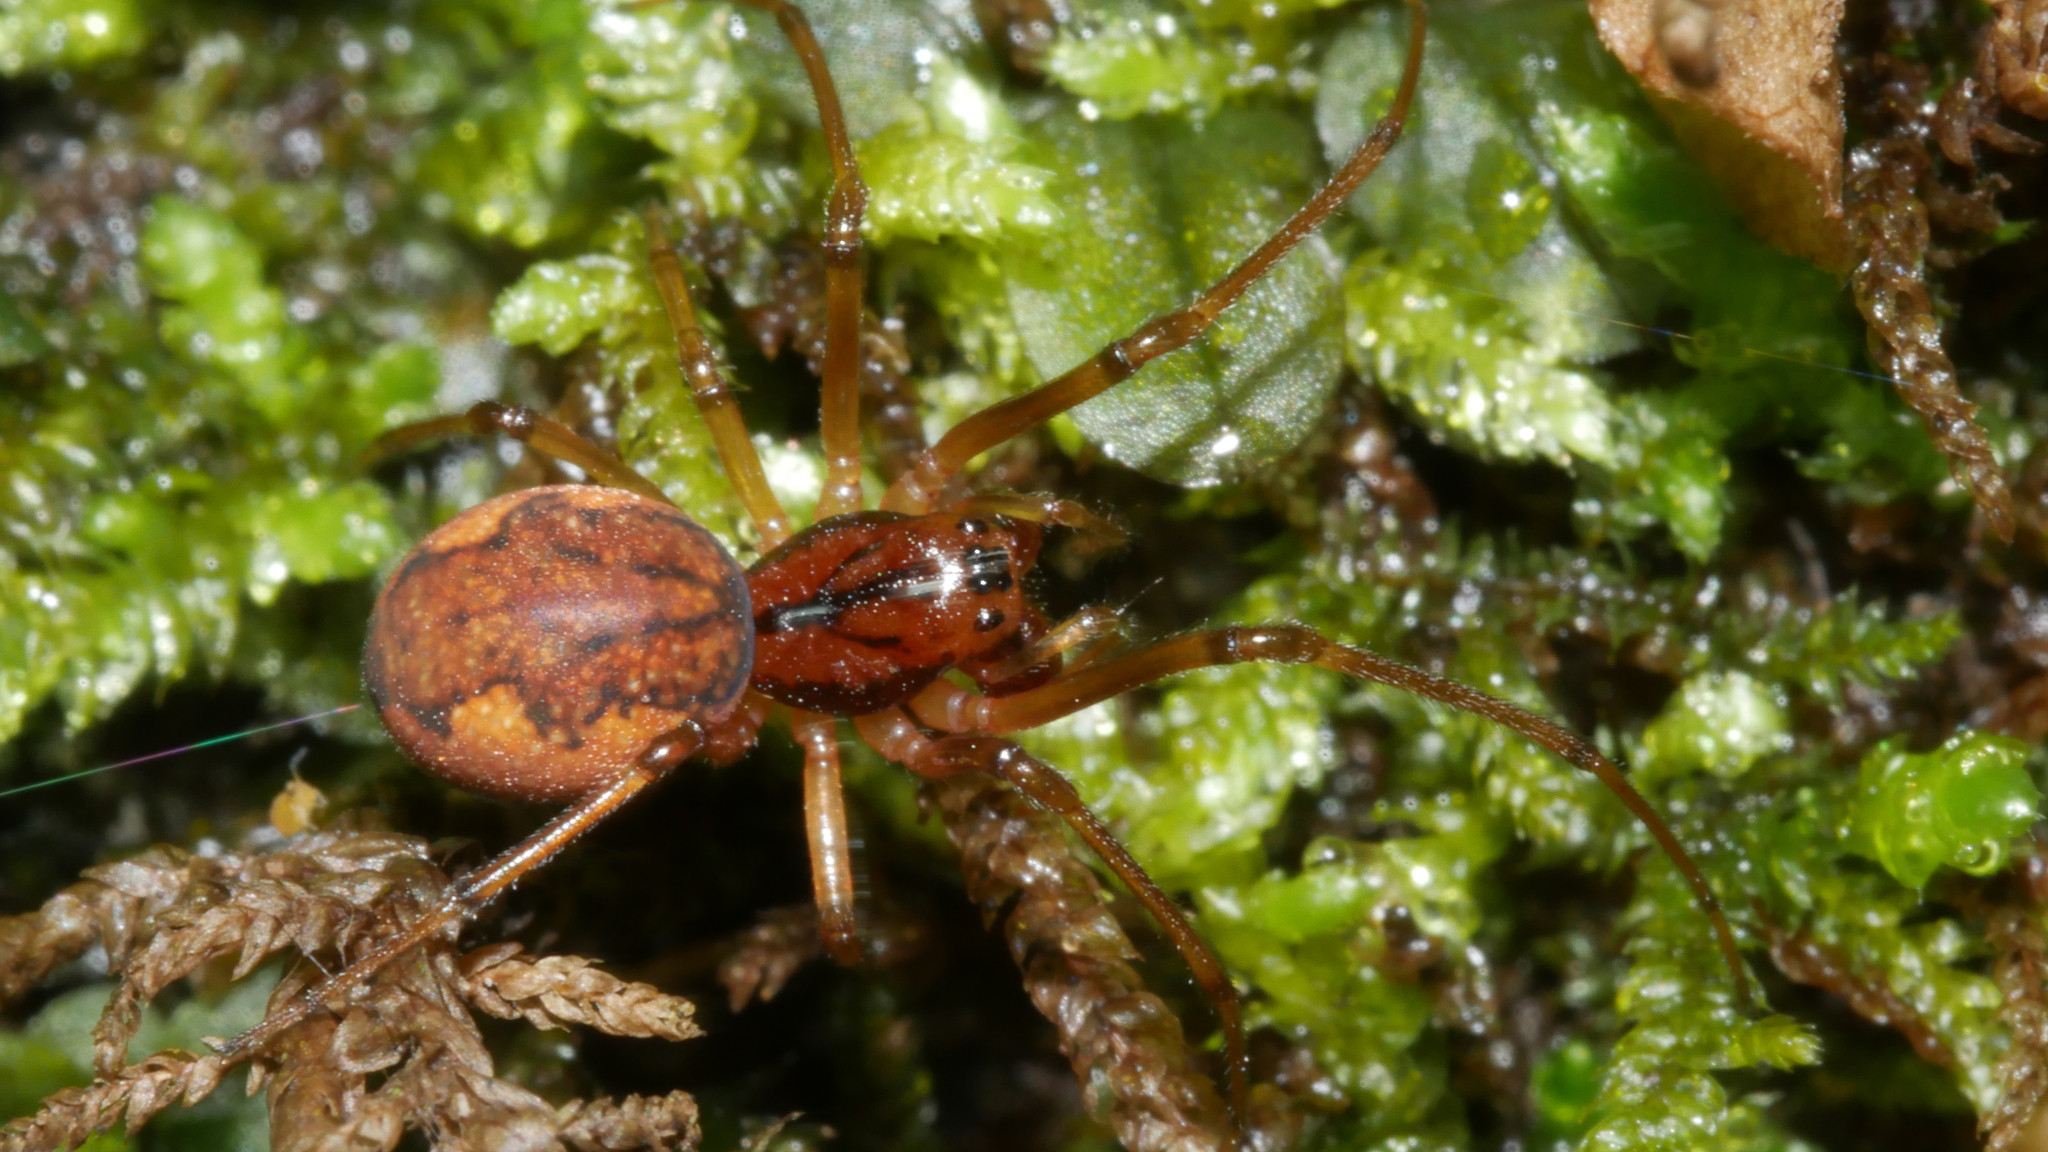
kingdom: Animalia
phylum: Arthropoda
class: Arachnida
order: Araneae
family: Tetragnathidae
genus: Pachygnatha
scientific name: Pachygnatha furcillata
